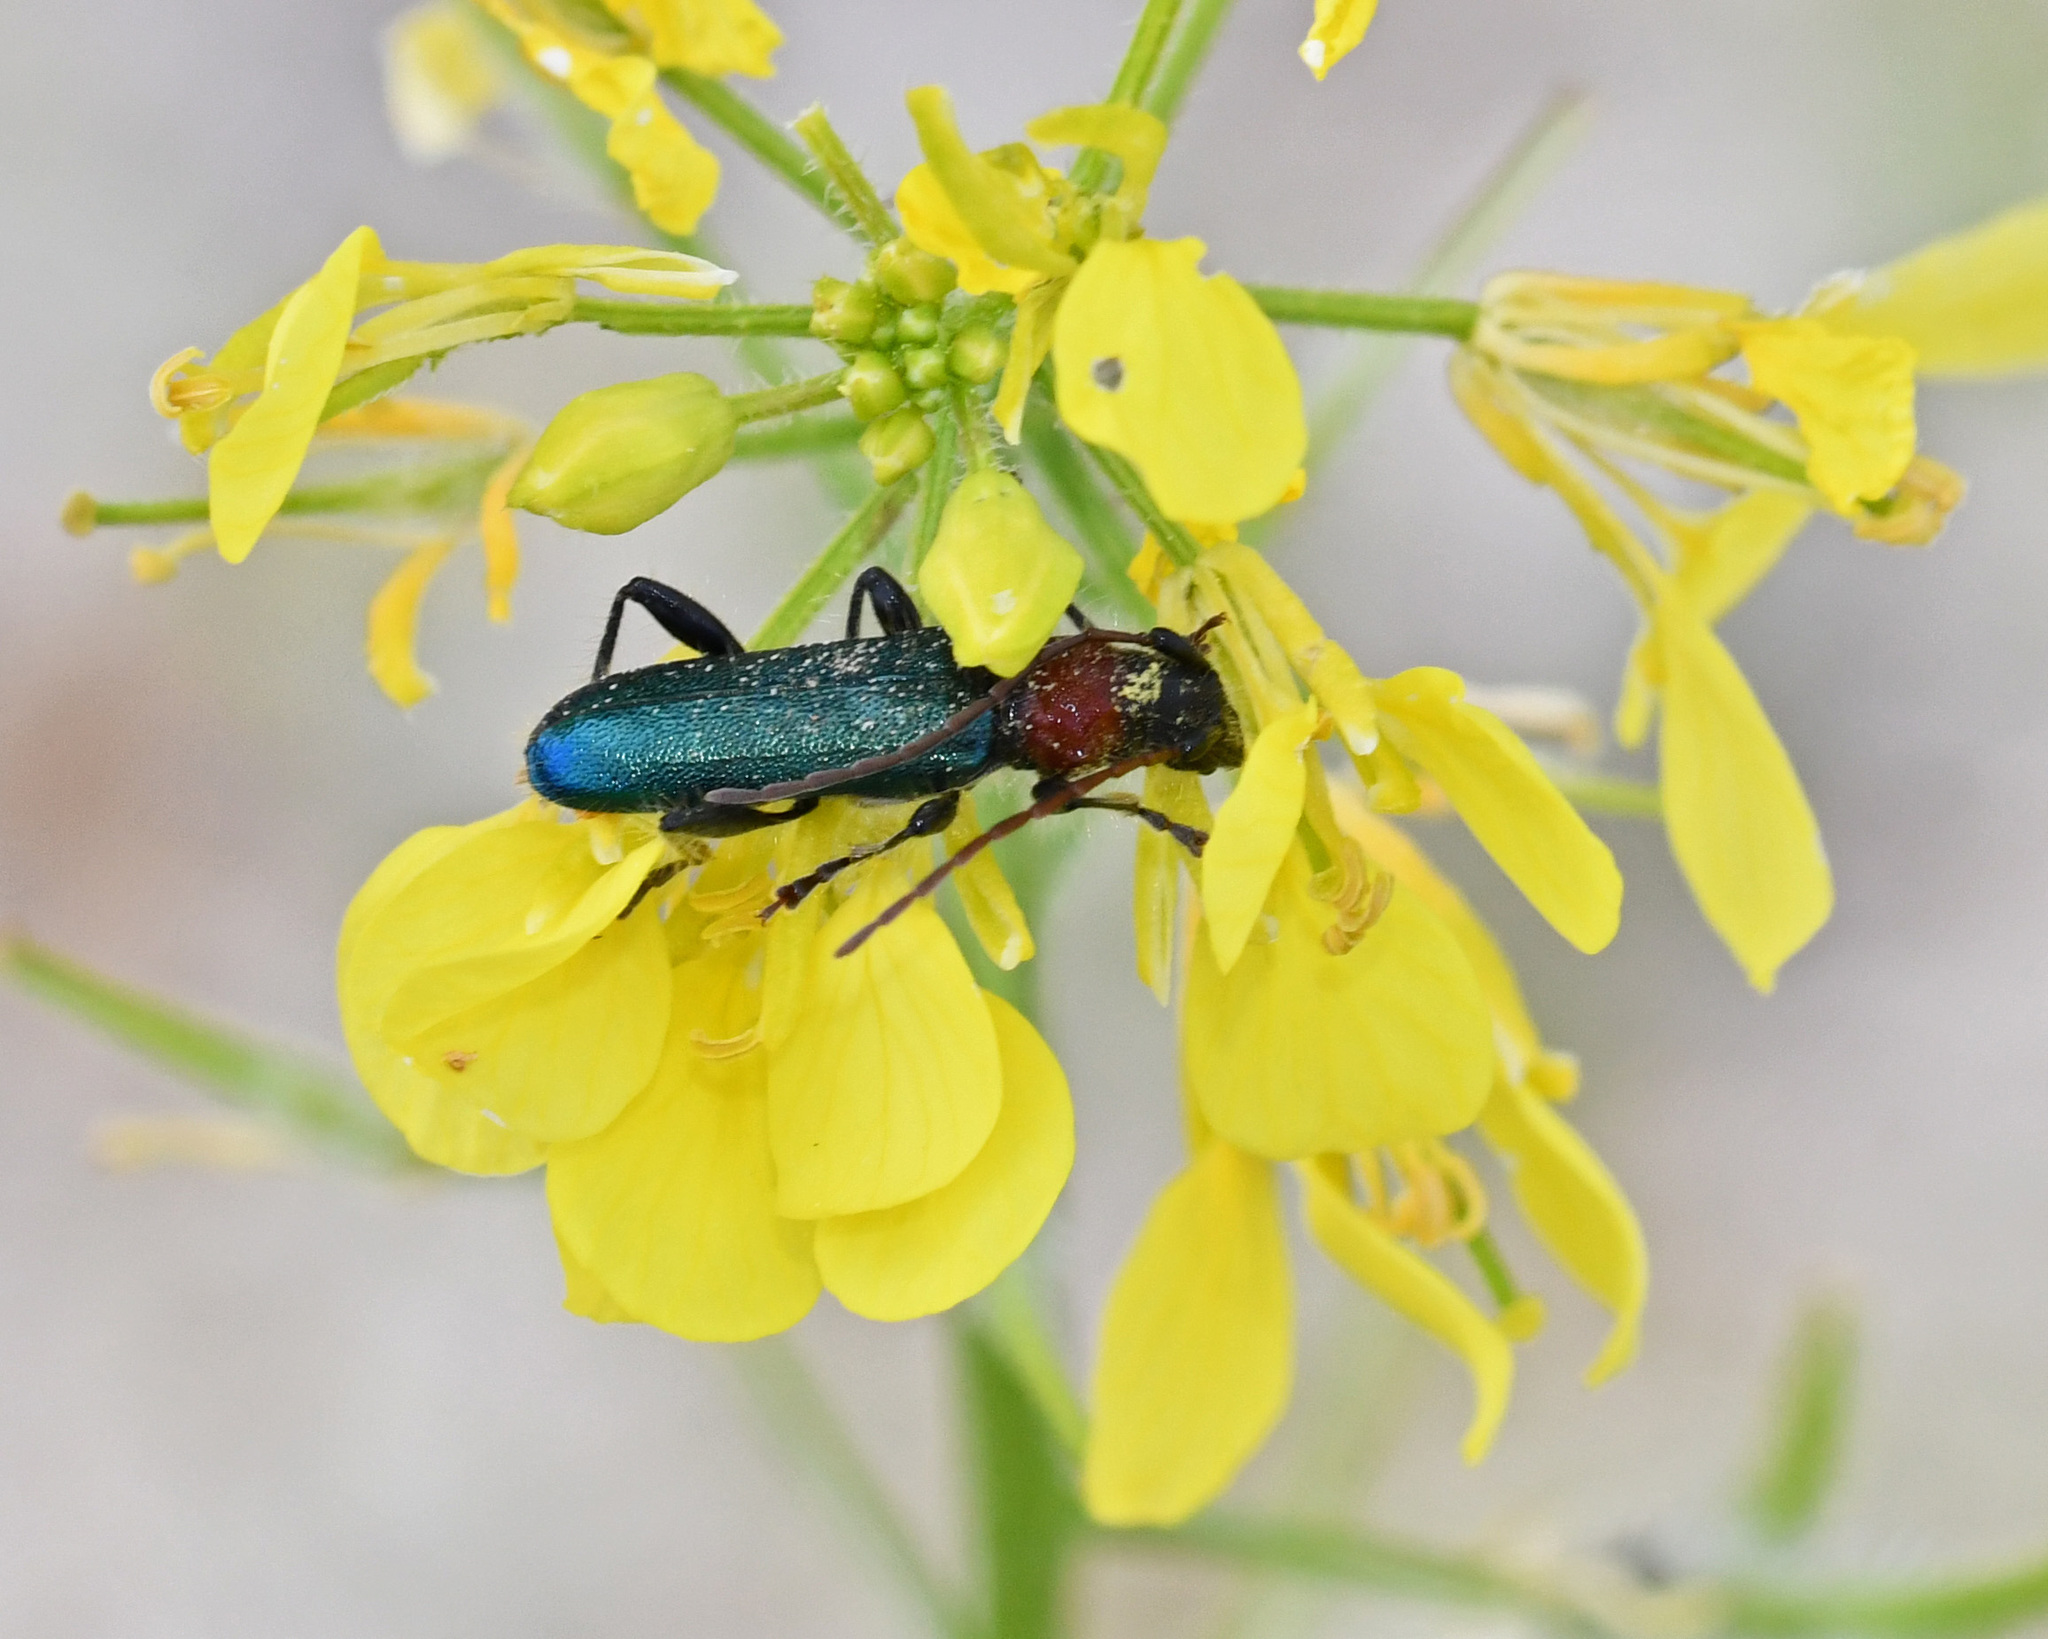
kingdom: Animalia
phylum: Arthropoda
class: Insecta
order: Coleoptera
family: Cerambycidae
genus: Certallum
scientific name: Certallum ebulinum
